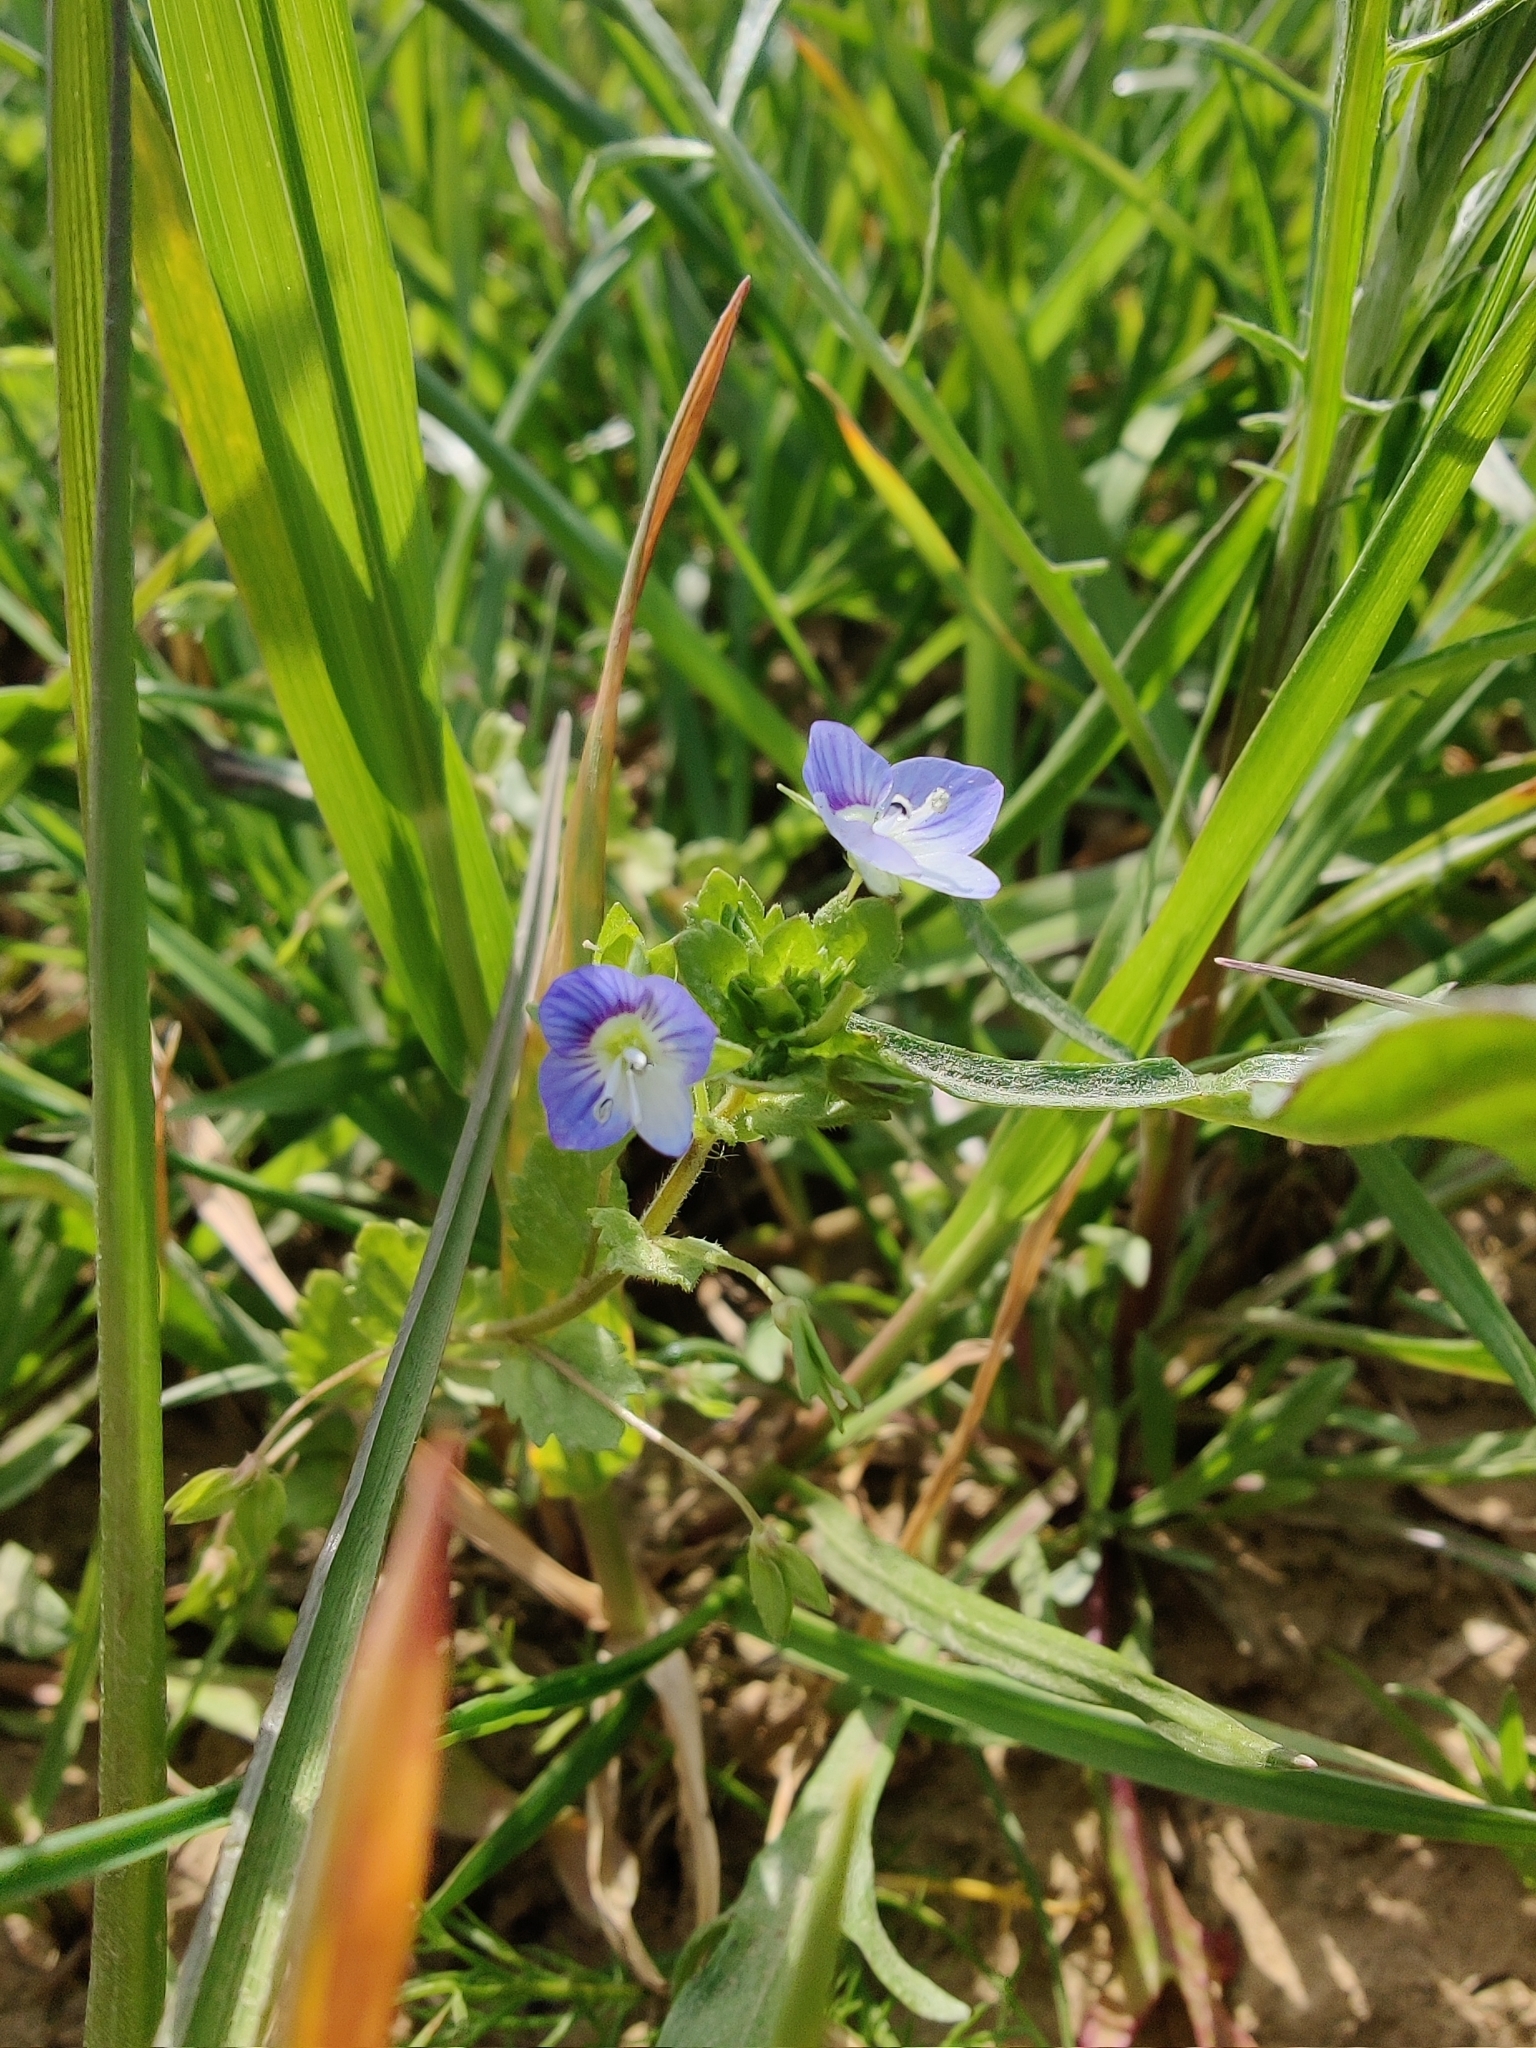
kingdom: Plantae
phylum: Tracheophyta
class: Magnoliopsida
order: Lamiales
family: Plantaginaceae
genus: Veronica
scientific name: Veronica persica
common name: Common field-speedwell
